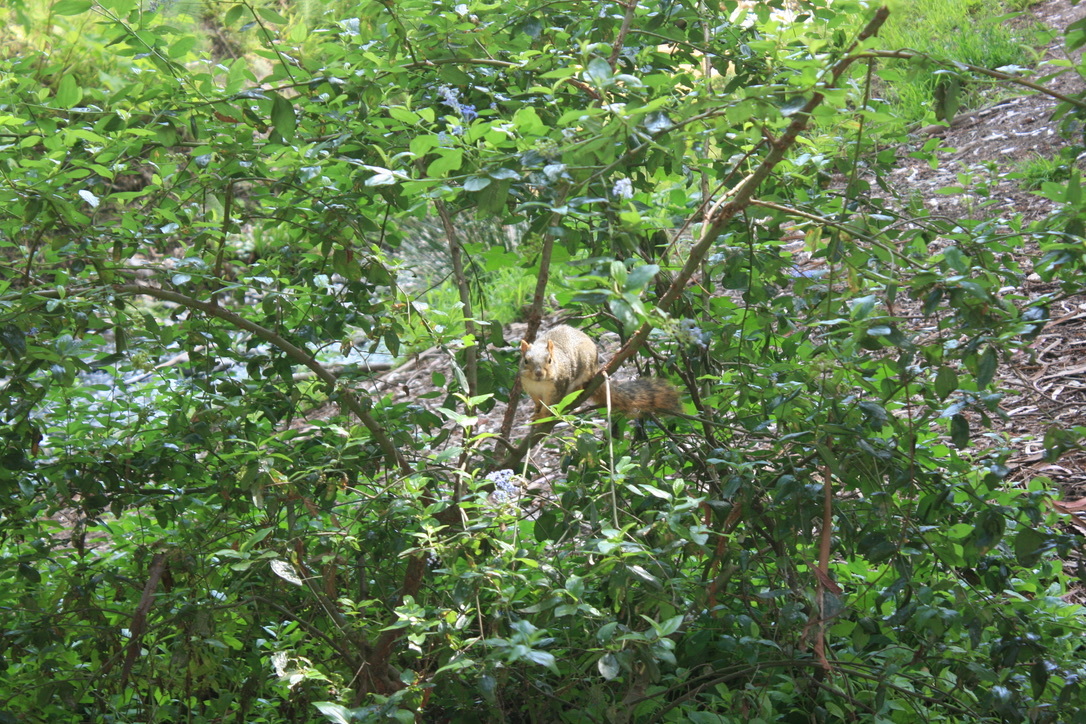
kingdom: Animalia
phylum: Chordata
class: Mammalia
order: Rodentia
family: Sciuridae
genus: Sciurus
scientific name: Sciurus niger
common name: Fox squirrel
